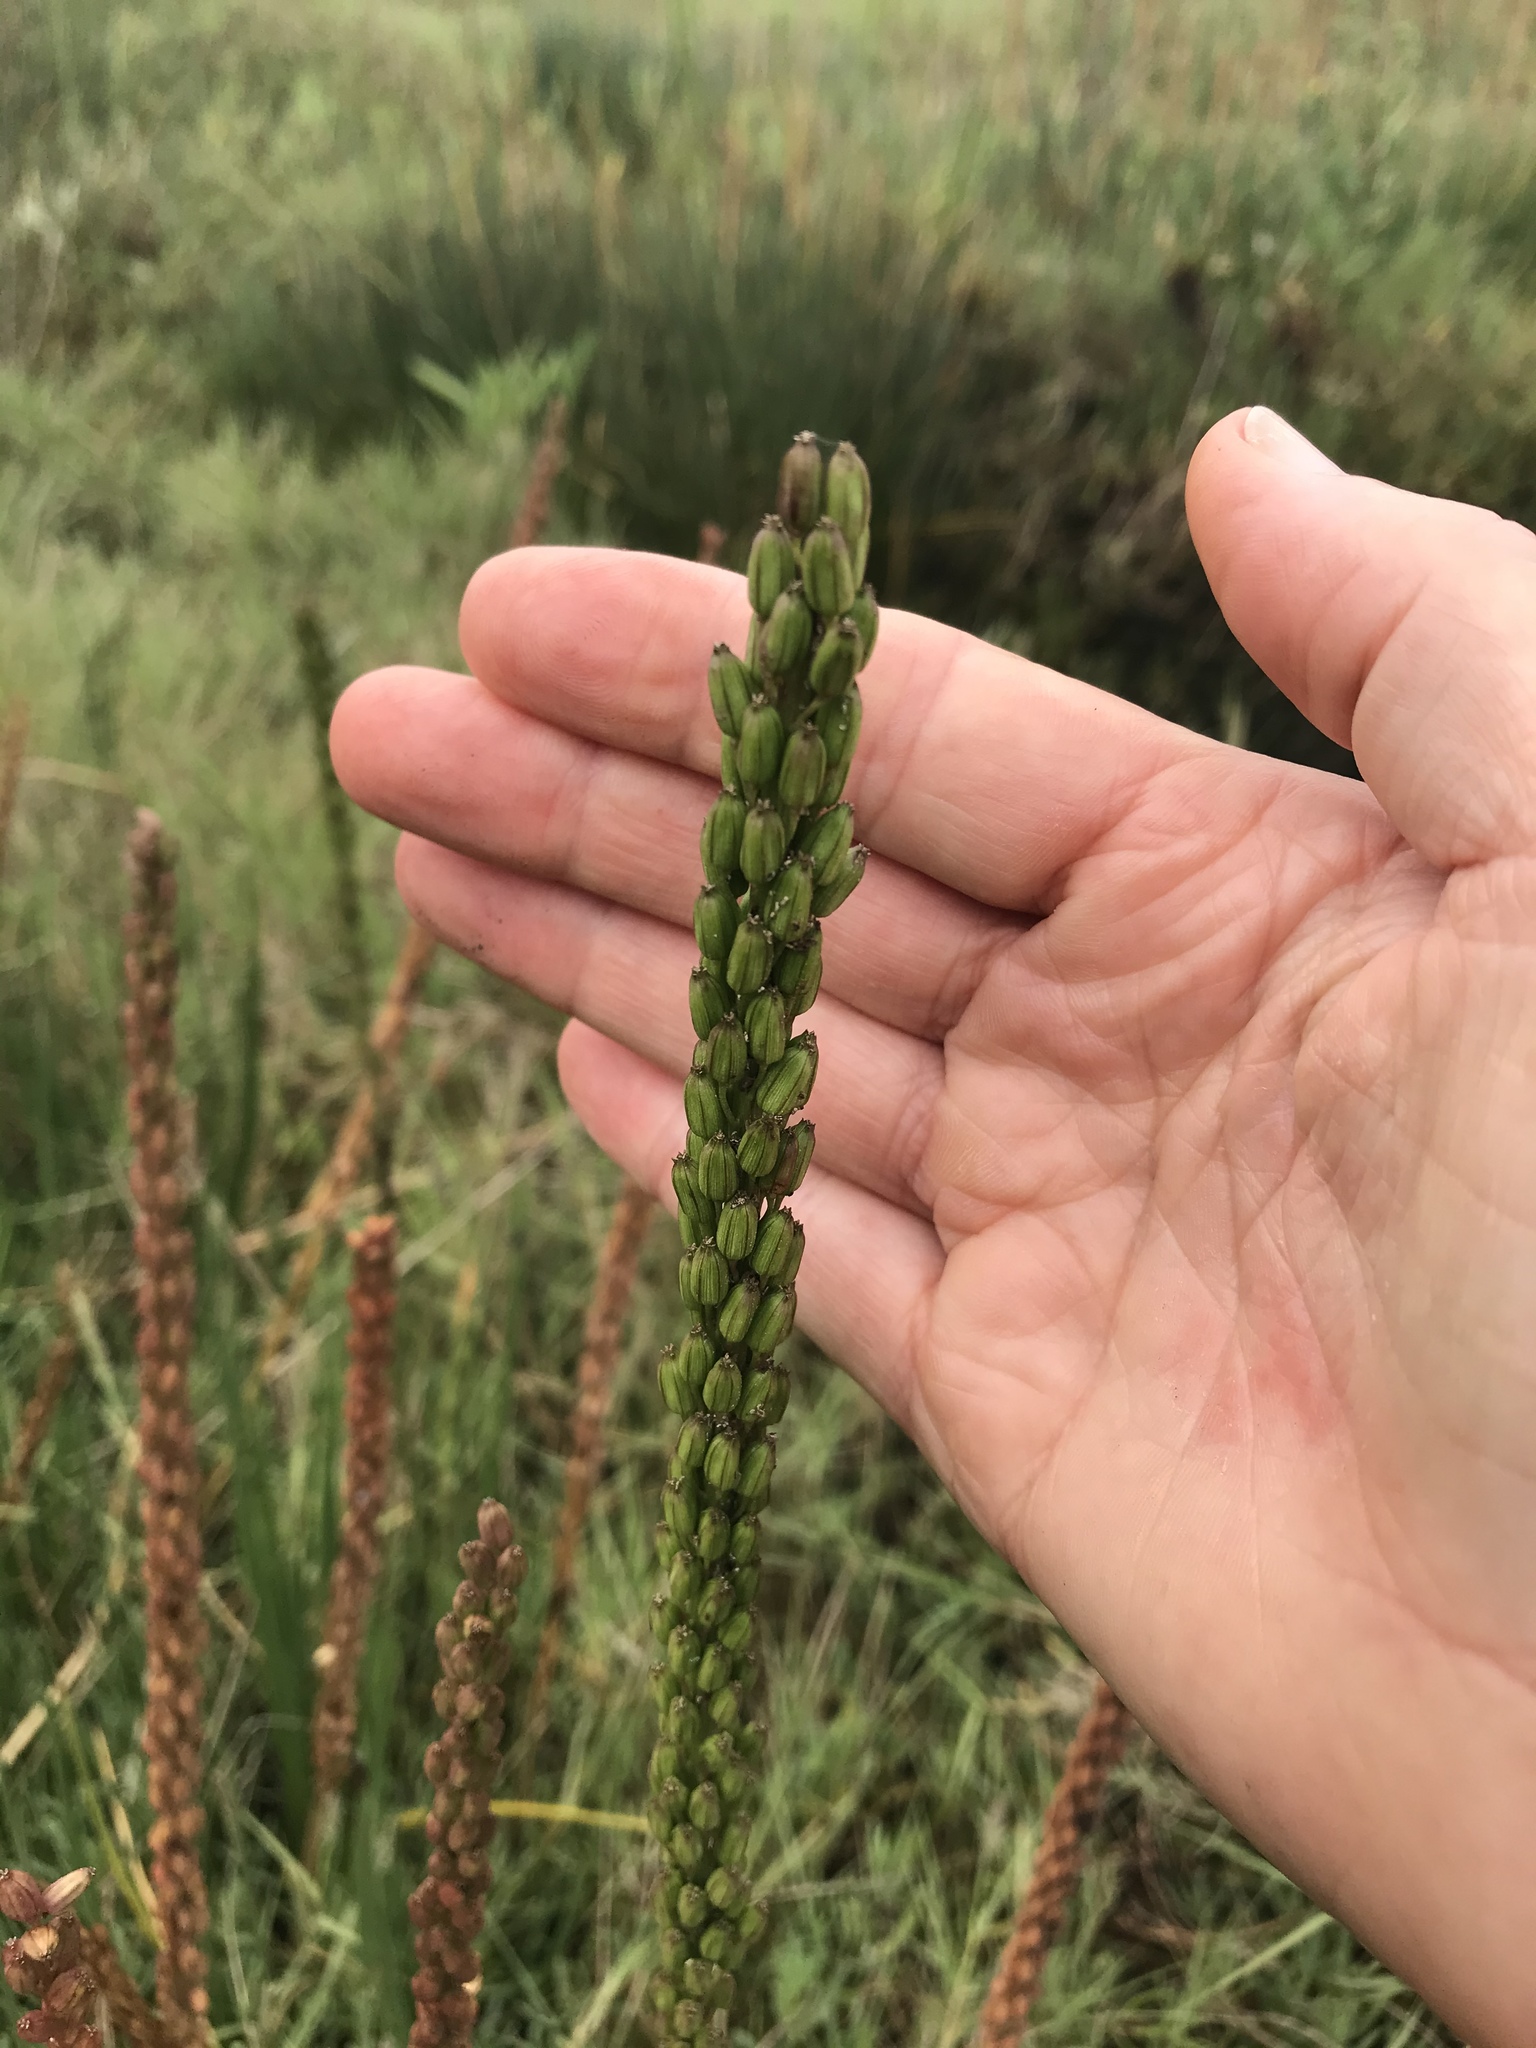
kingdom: Plantae
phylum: Tracheophyta
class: Liliopsida
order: Alismatales
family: Juncaginaceae
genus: Triglochin
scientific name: Triglochin maritima
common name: Sea arrowgrass
